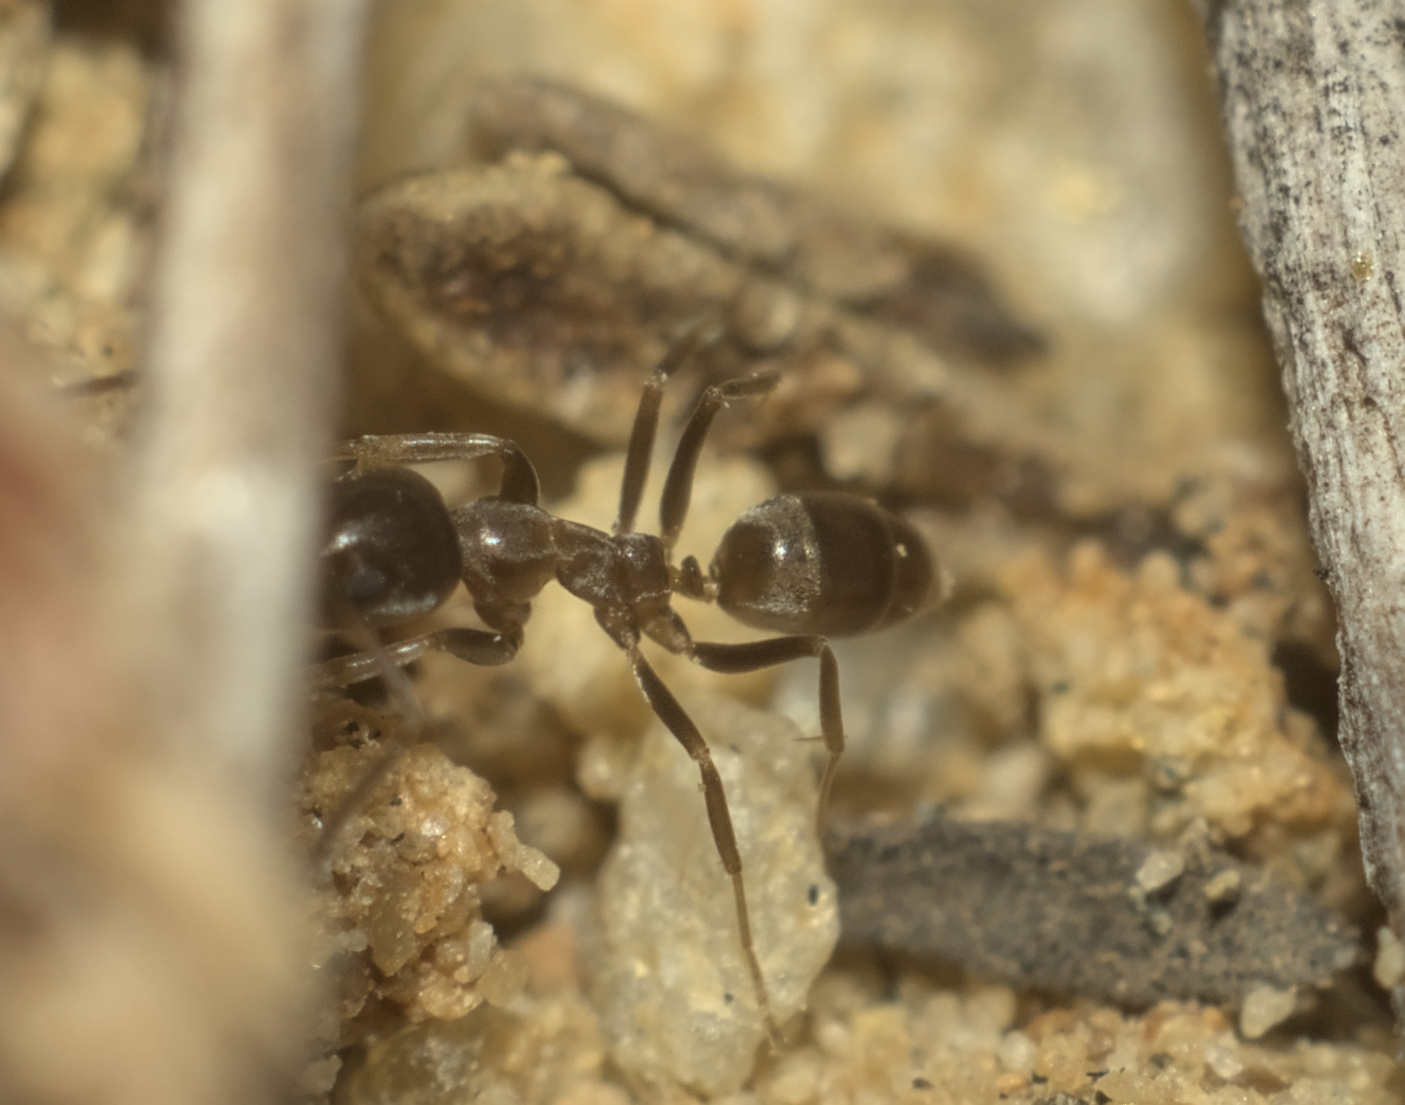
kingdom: Animalia
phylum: Arthropoda
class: Insecta
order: Hymenoptera
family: Formicidae
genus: Linepithema
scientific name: Linepithema humile
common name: Argentine ant
